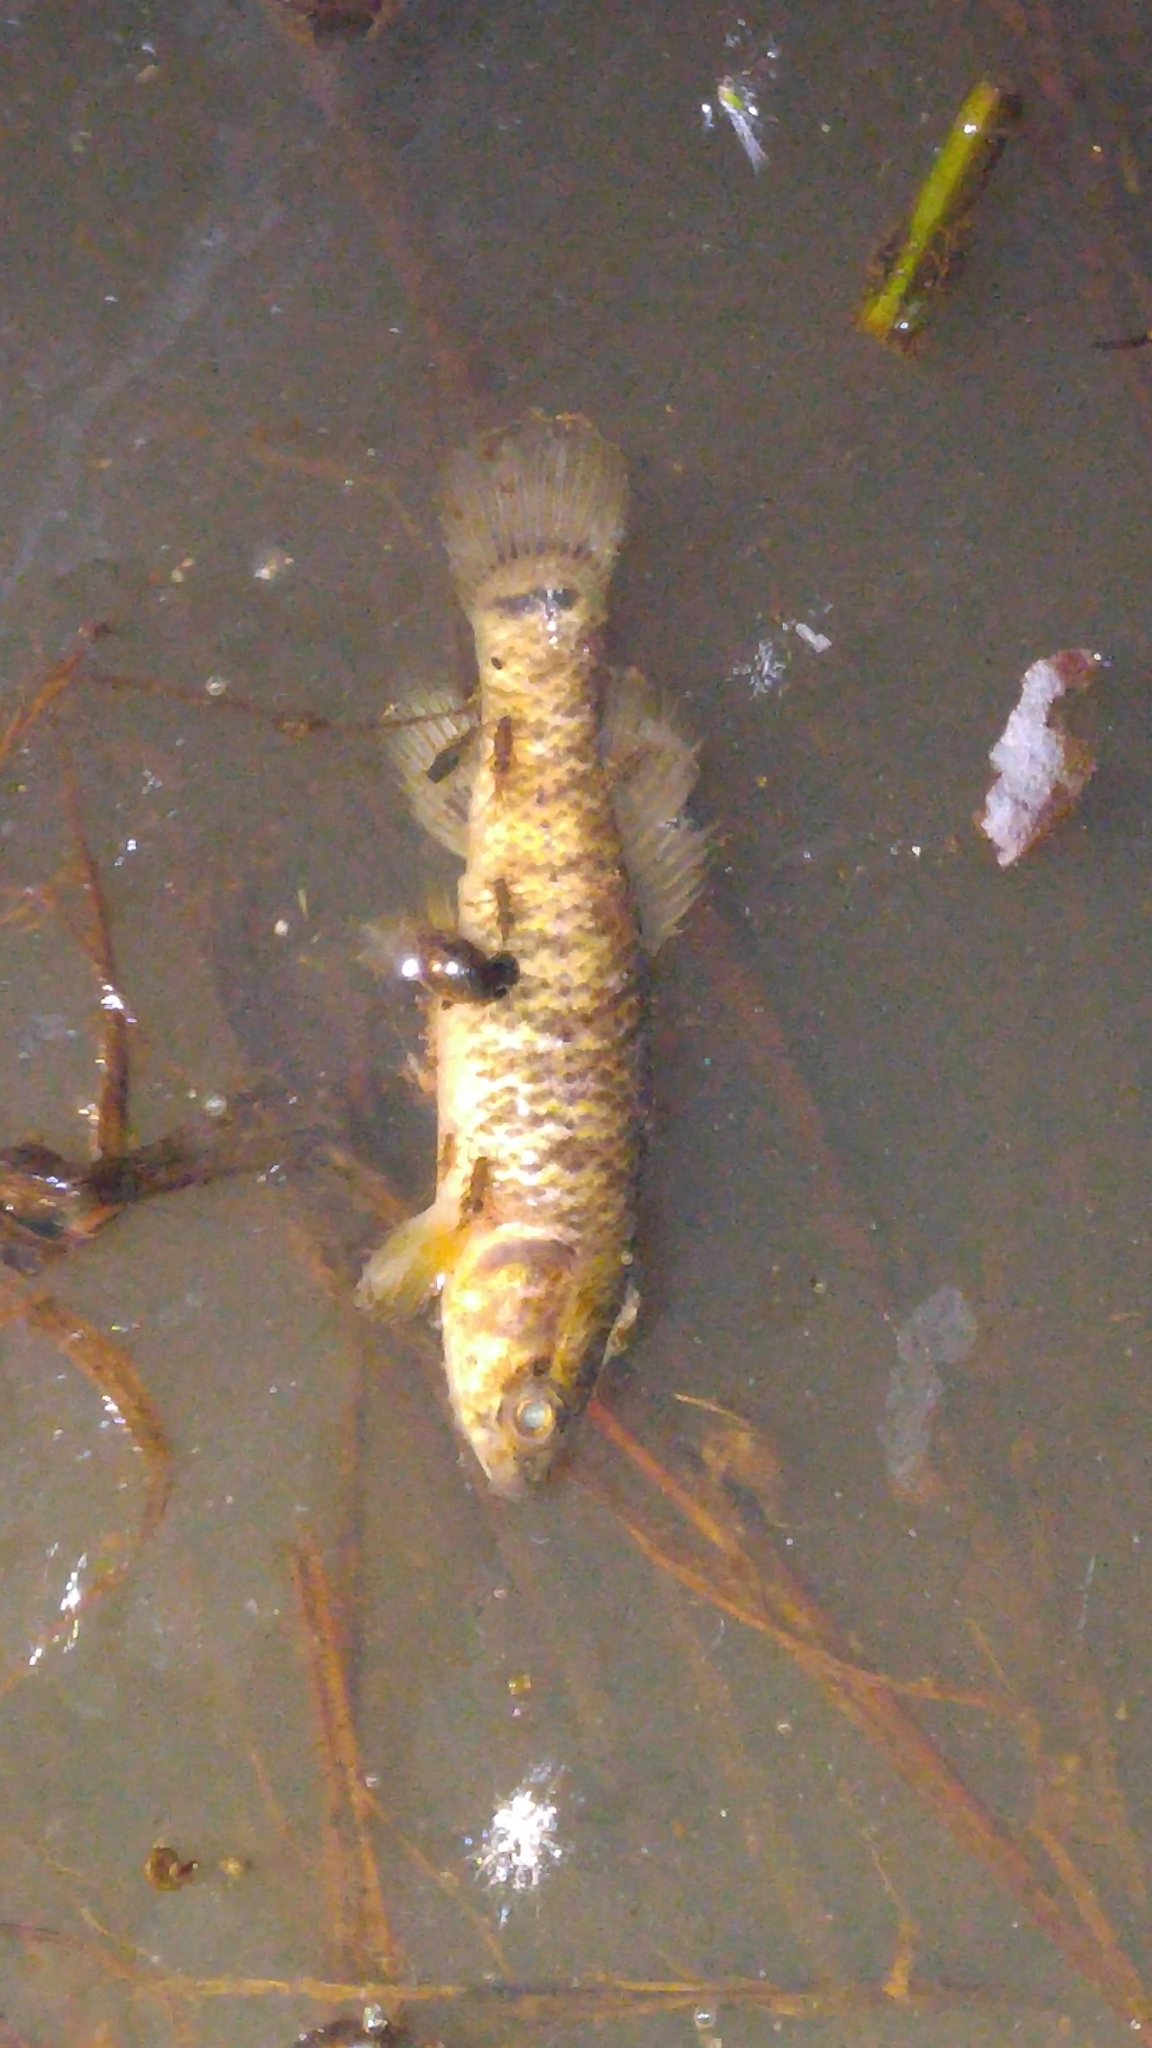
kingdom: Animalia
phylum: Chordata
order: Esociformes
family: Umbridae
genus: Umbra
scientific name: Umbra limi
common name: Central mudminnow
